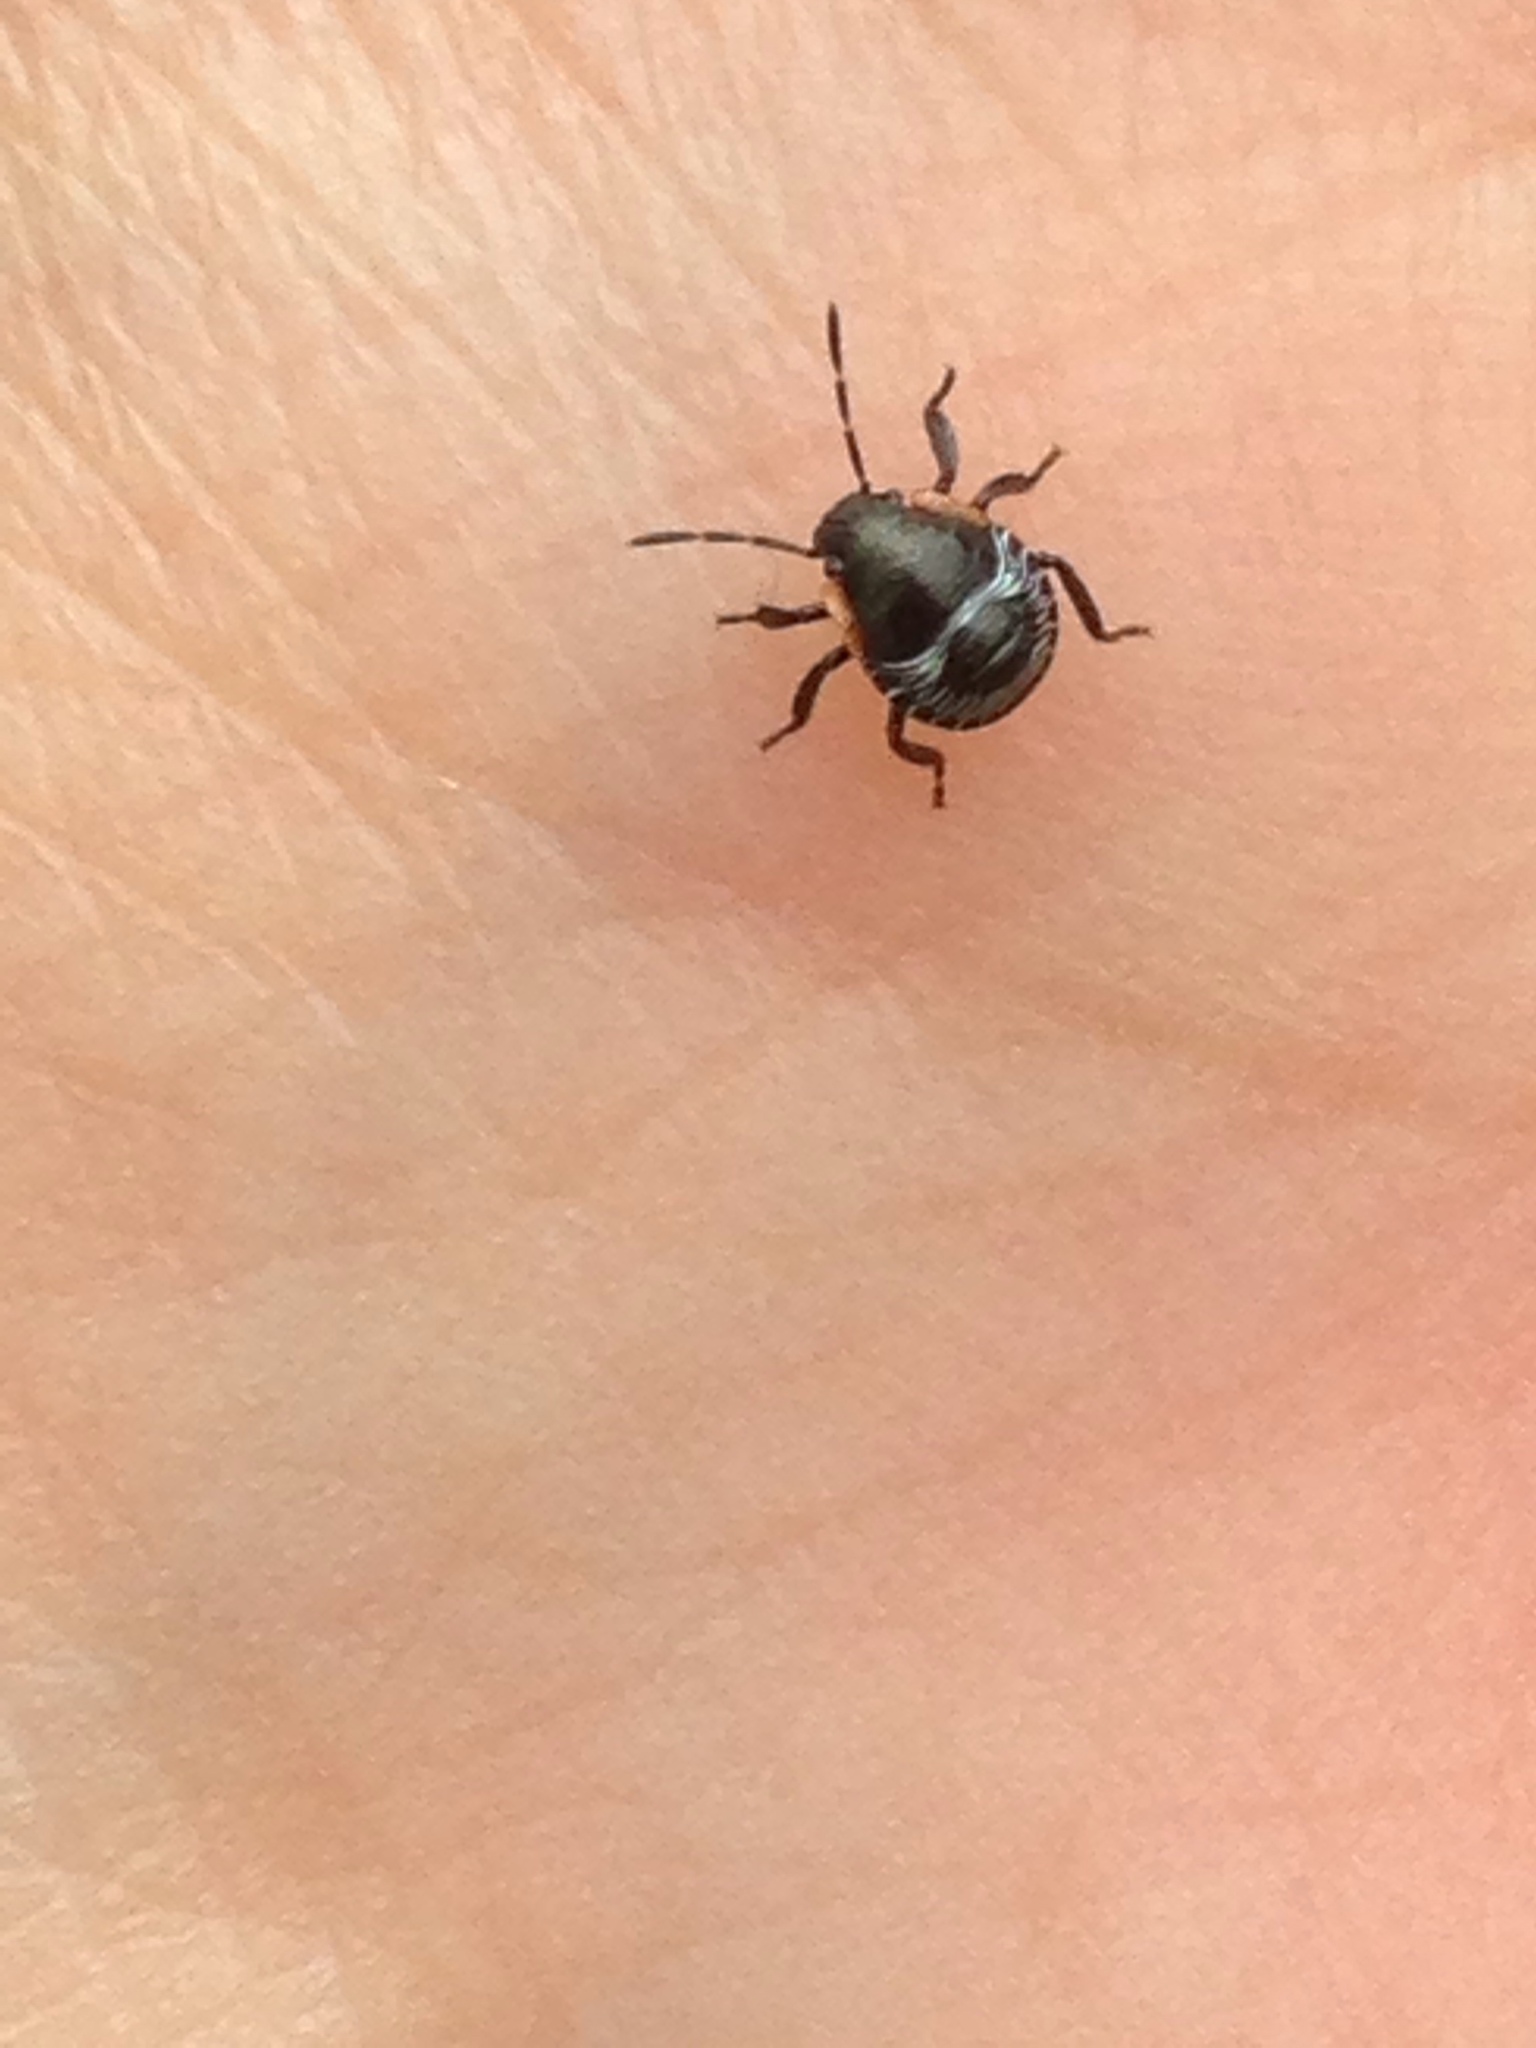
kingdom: Animalia
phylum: Arthropoda
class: Insecta
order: Hemiptera
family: Pentatomidae
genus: Chinavia
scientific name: Chinavia hilaris
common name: Green stink bug
